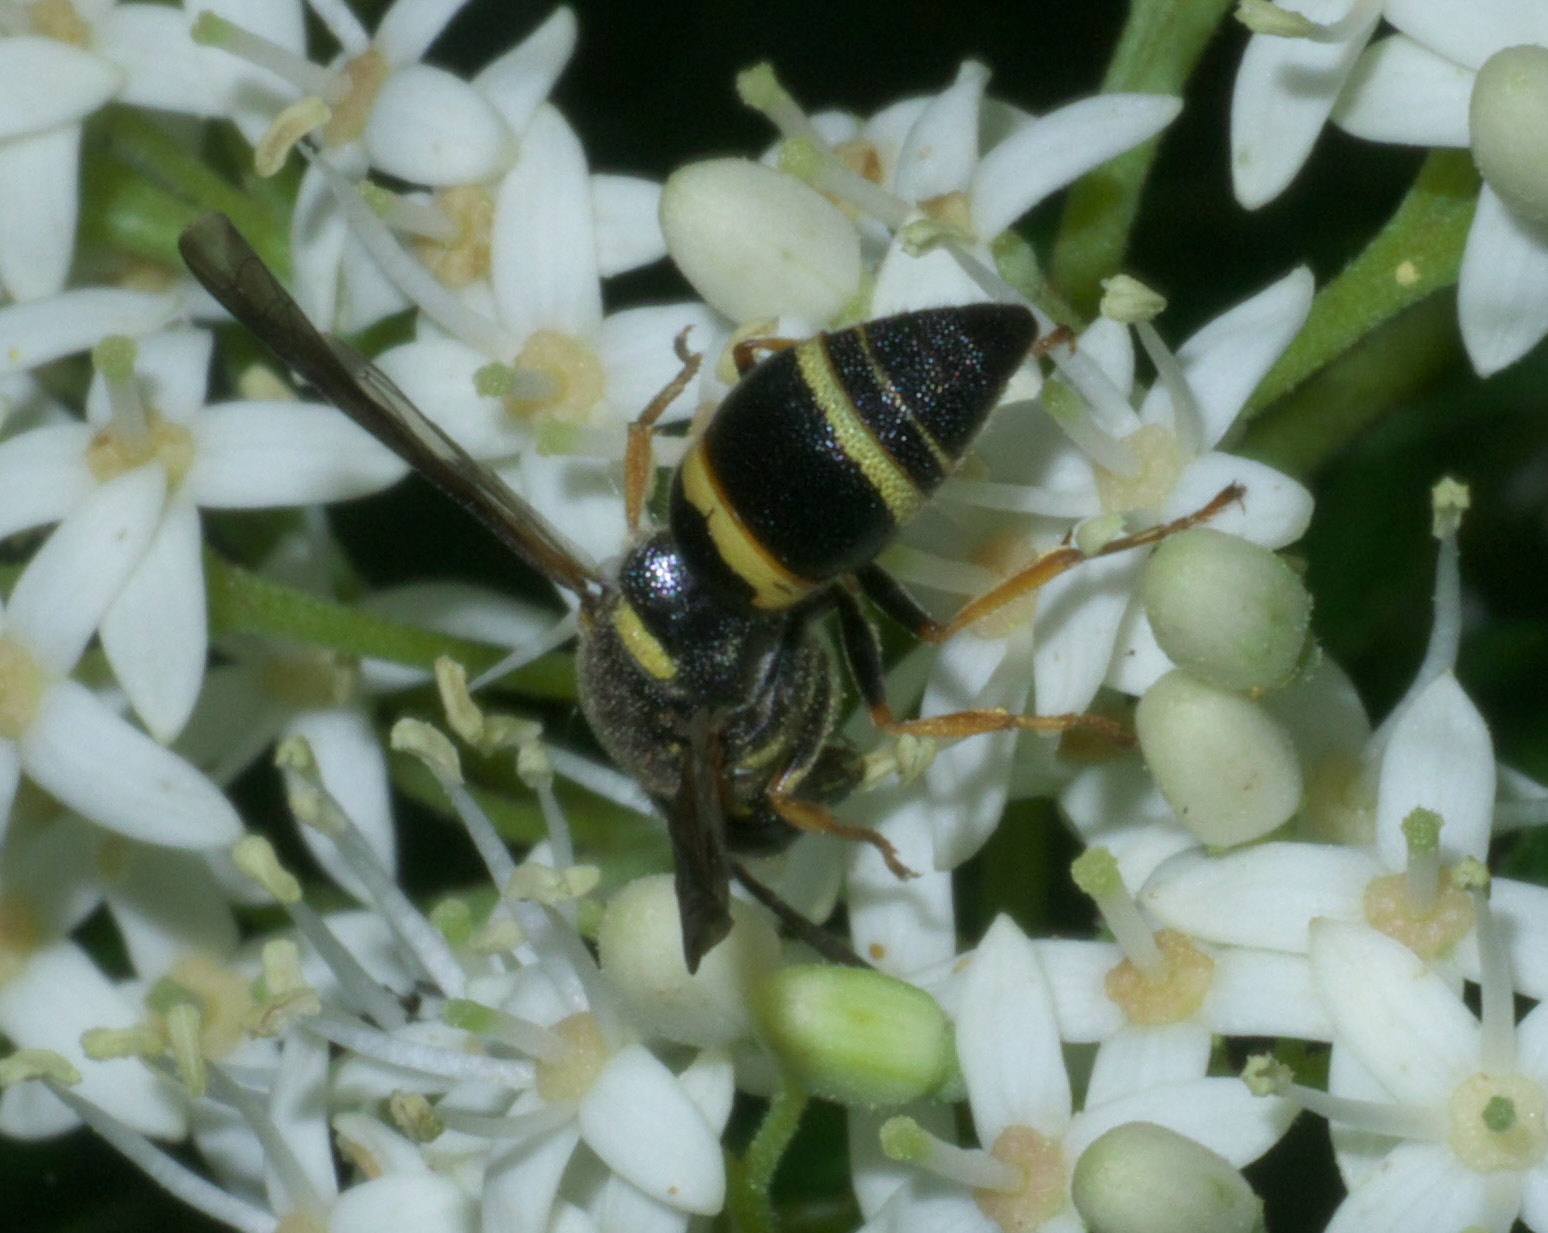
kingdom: Animalia
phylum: Arthropoda
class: Insecta
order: Hymenoptera
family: Eumenidae
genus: Euodynerus
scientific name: Euodynerus foraminatus
